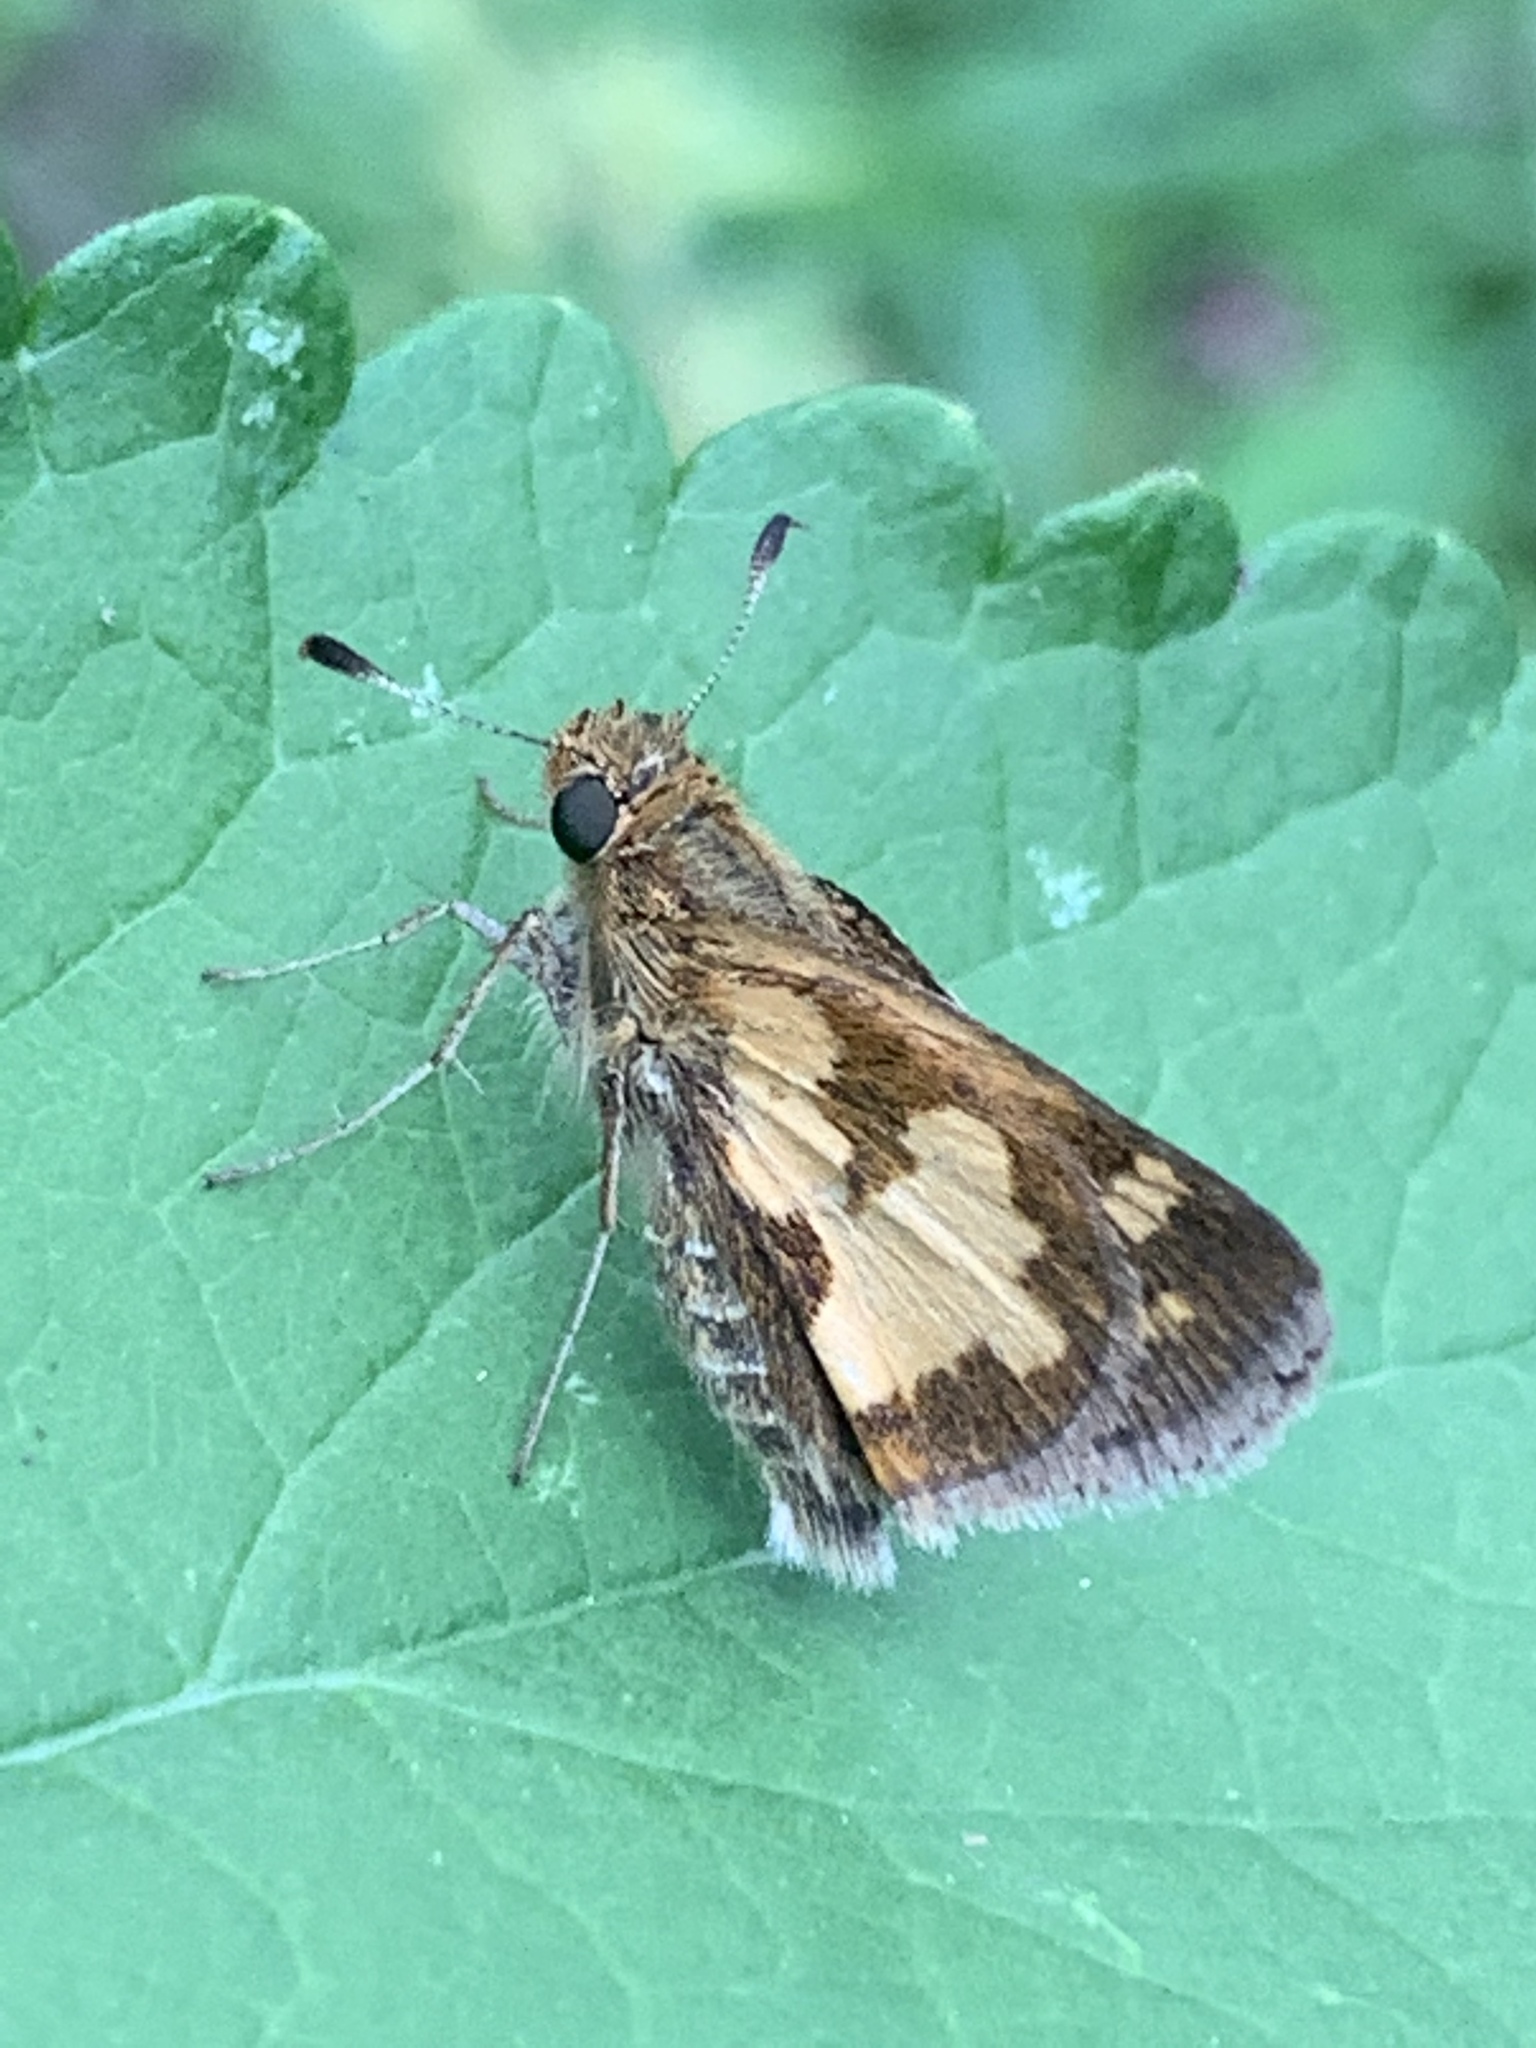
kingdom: Animalia
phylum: Arthropoda
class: Insecta
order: Lepidoptera
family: Hesperiidae
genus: Polites
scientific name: Polites coras
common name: Peck's skipper
